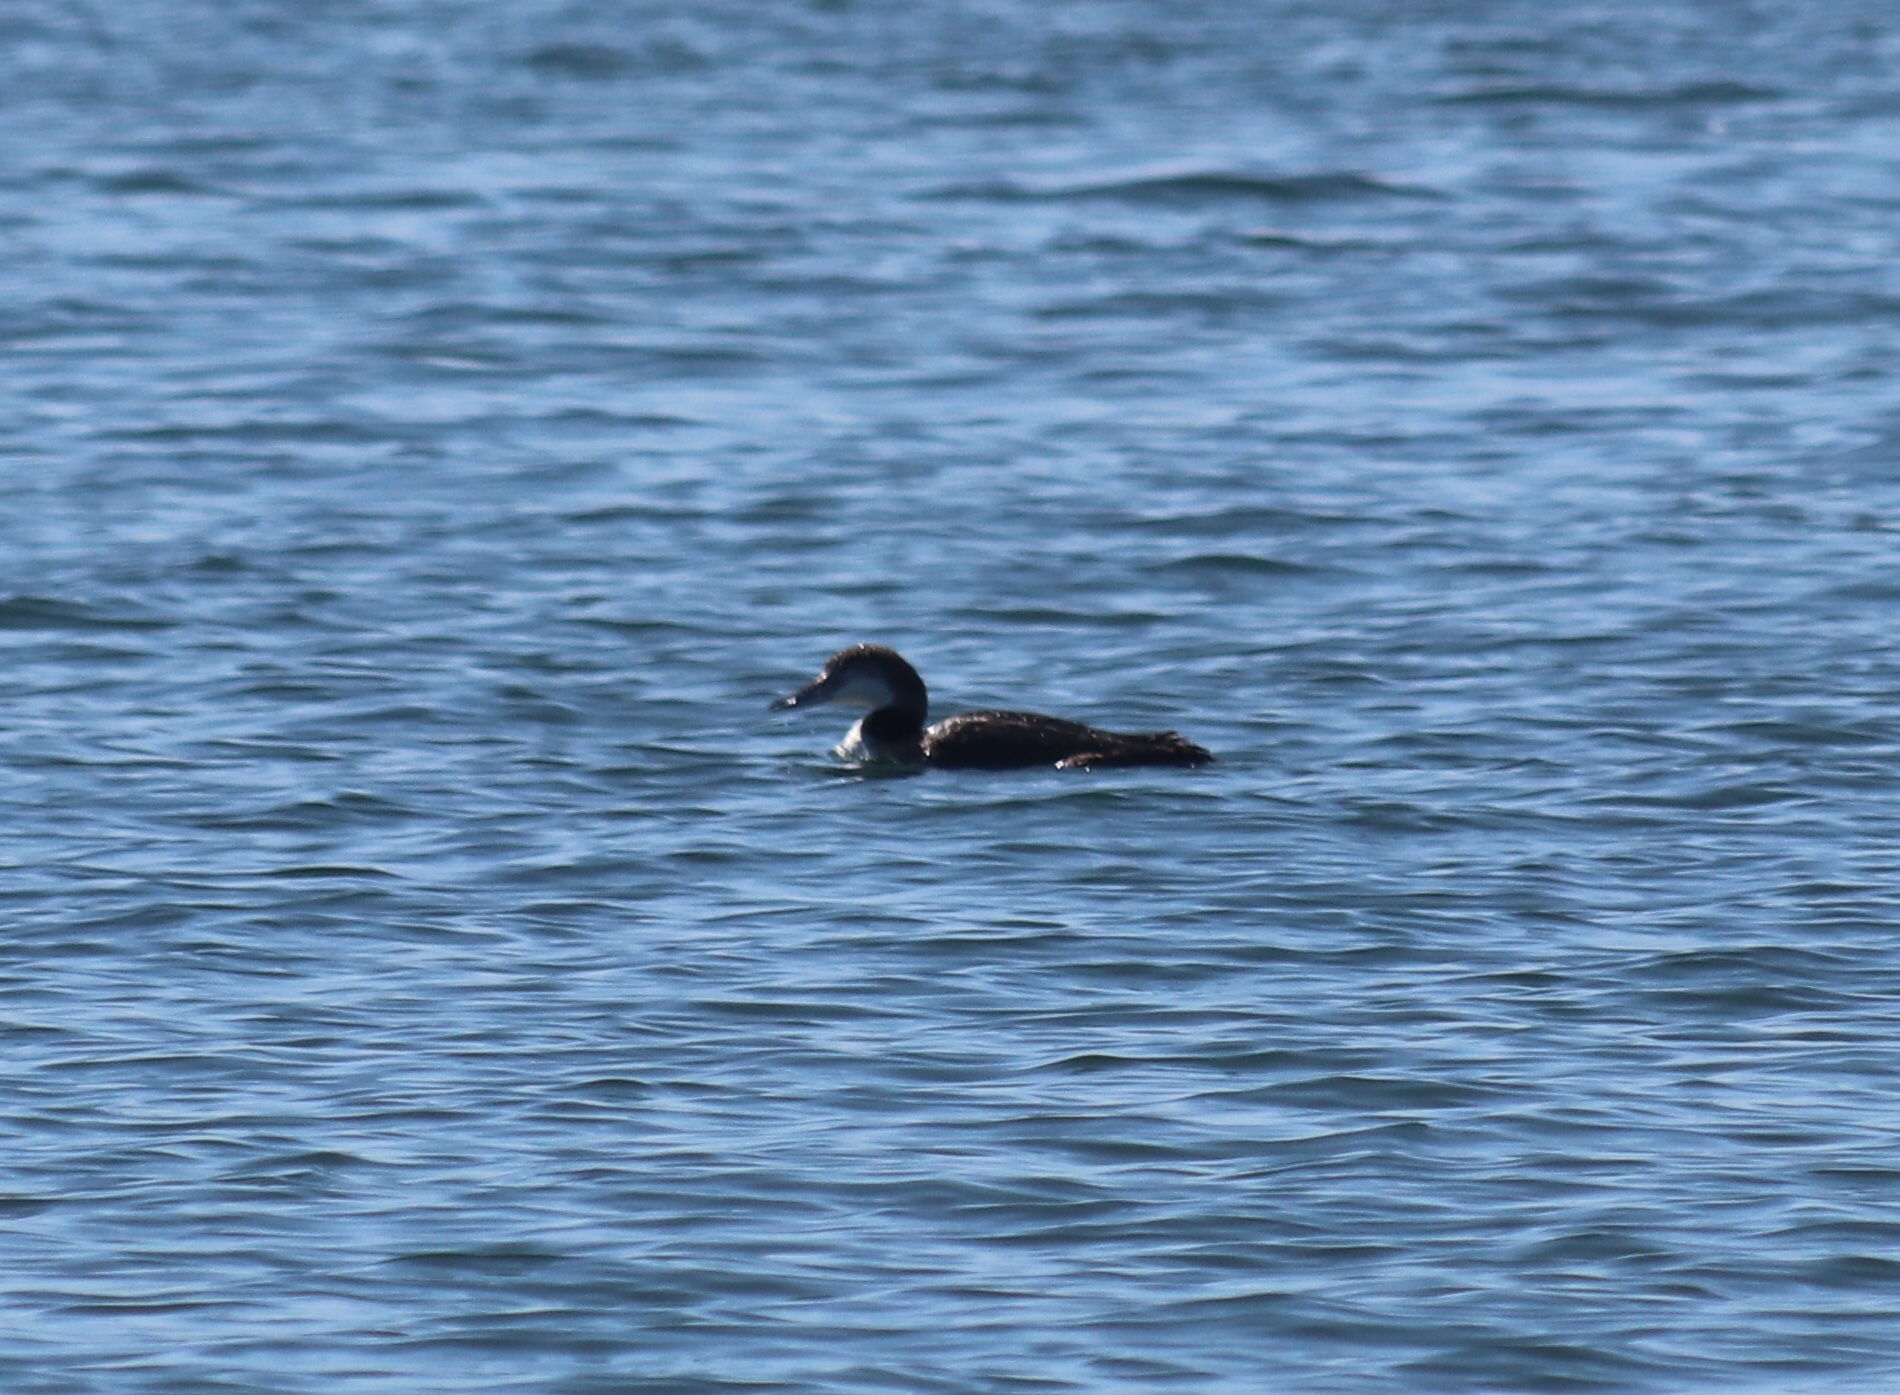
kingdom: Animalia
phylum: Chordata
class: Aves
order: Gaviiformes
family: Gaviidae
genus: Gavia
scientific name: Gavia immer
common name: Common loon
